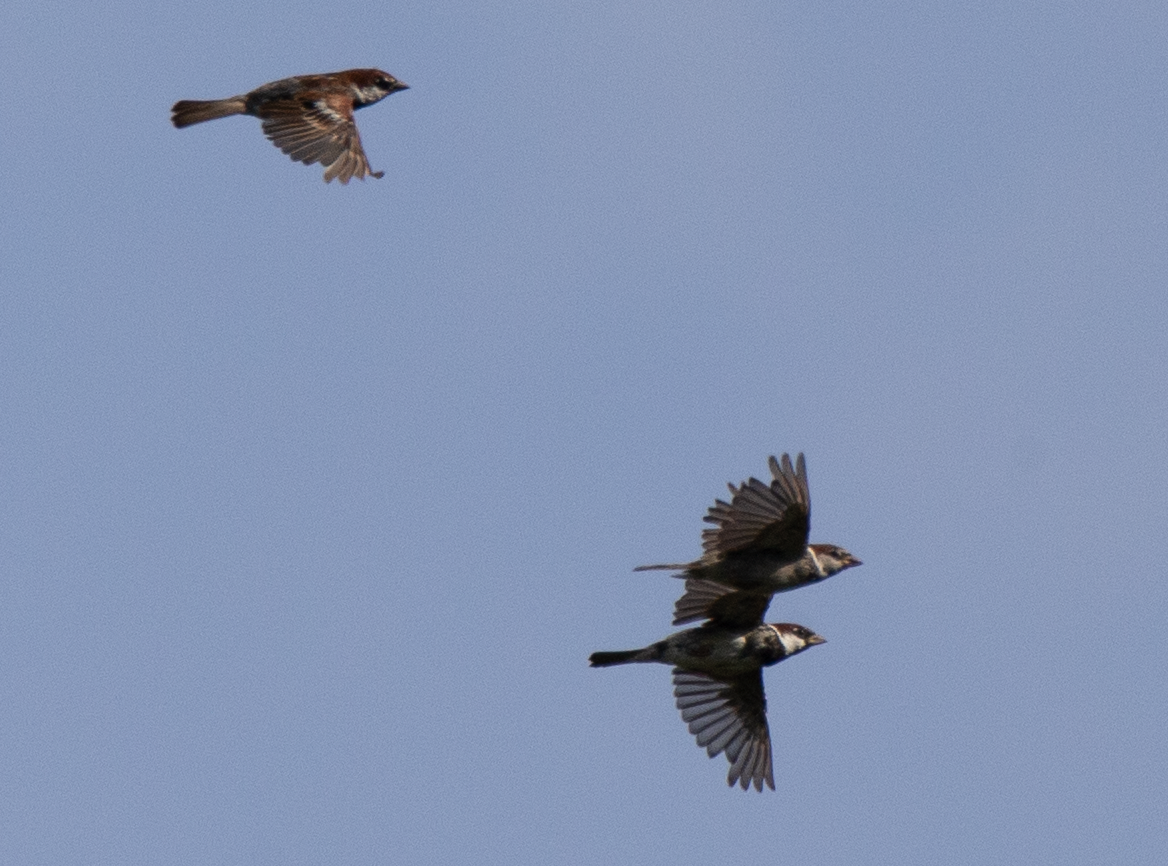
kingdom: Animalia
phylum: Chordata
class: Aves
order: Passeriformes
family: Passeridae
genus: Passer
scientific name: Passer italiae
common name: Italian sparrow
